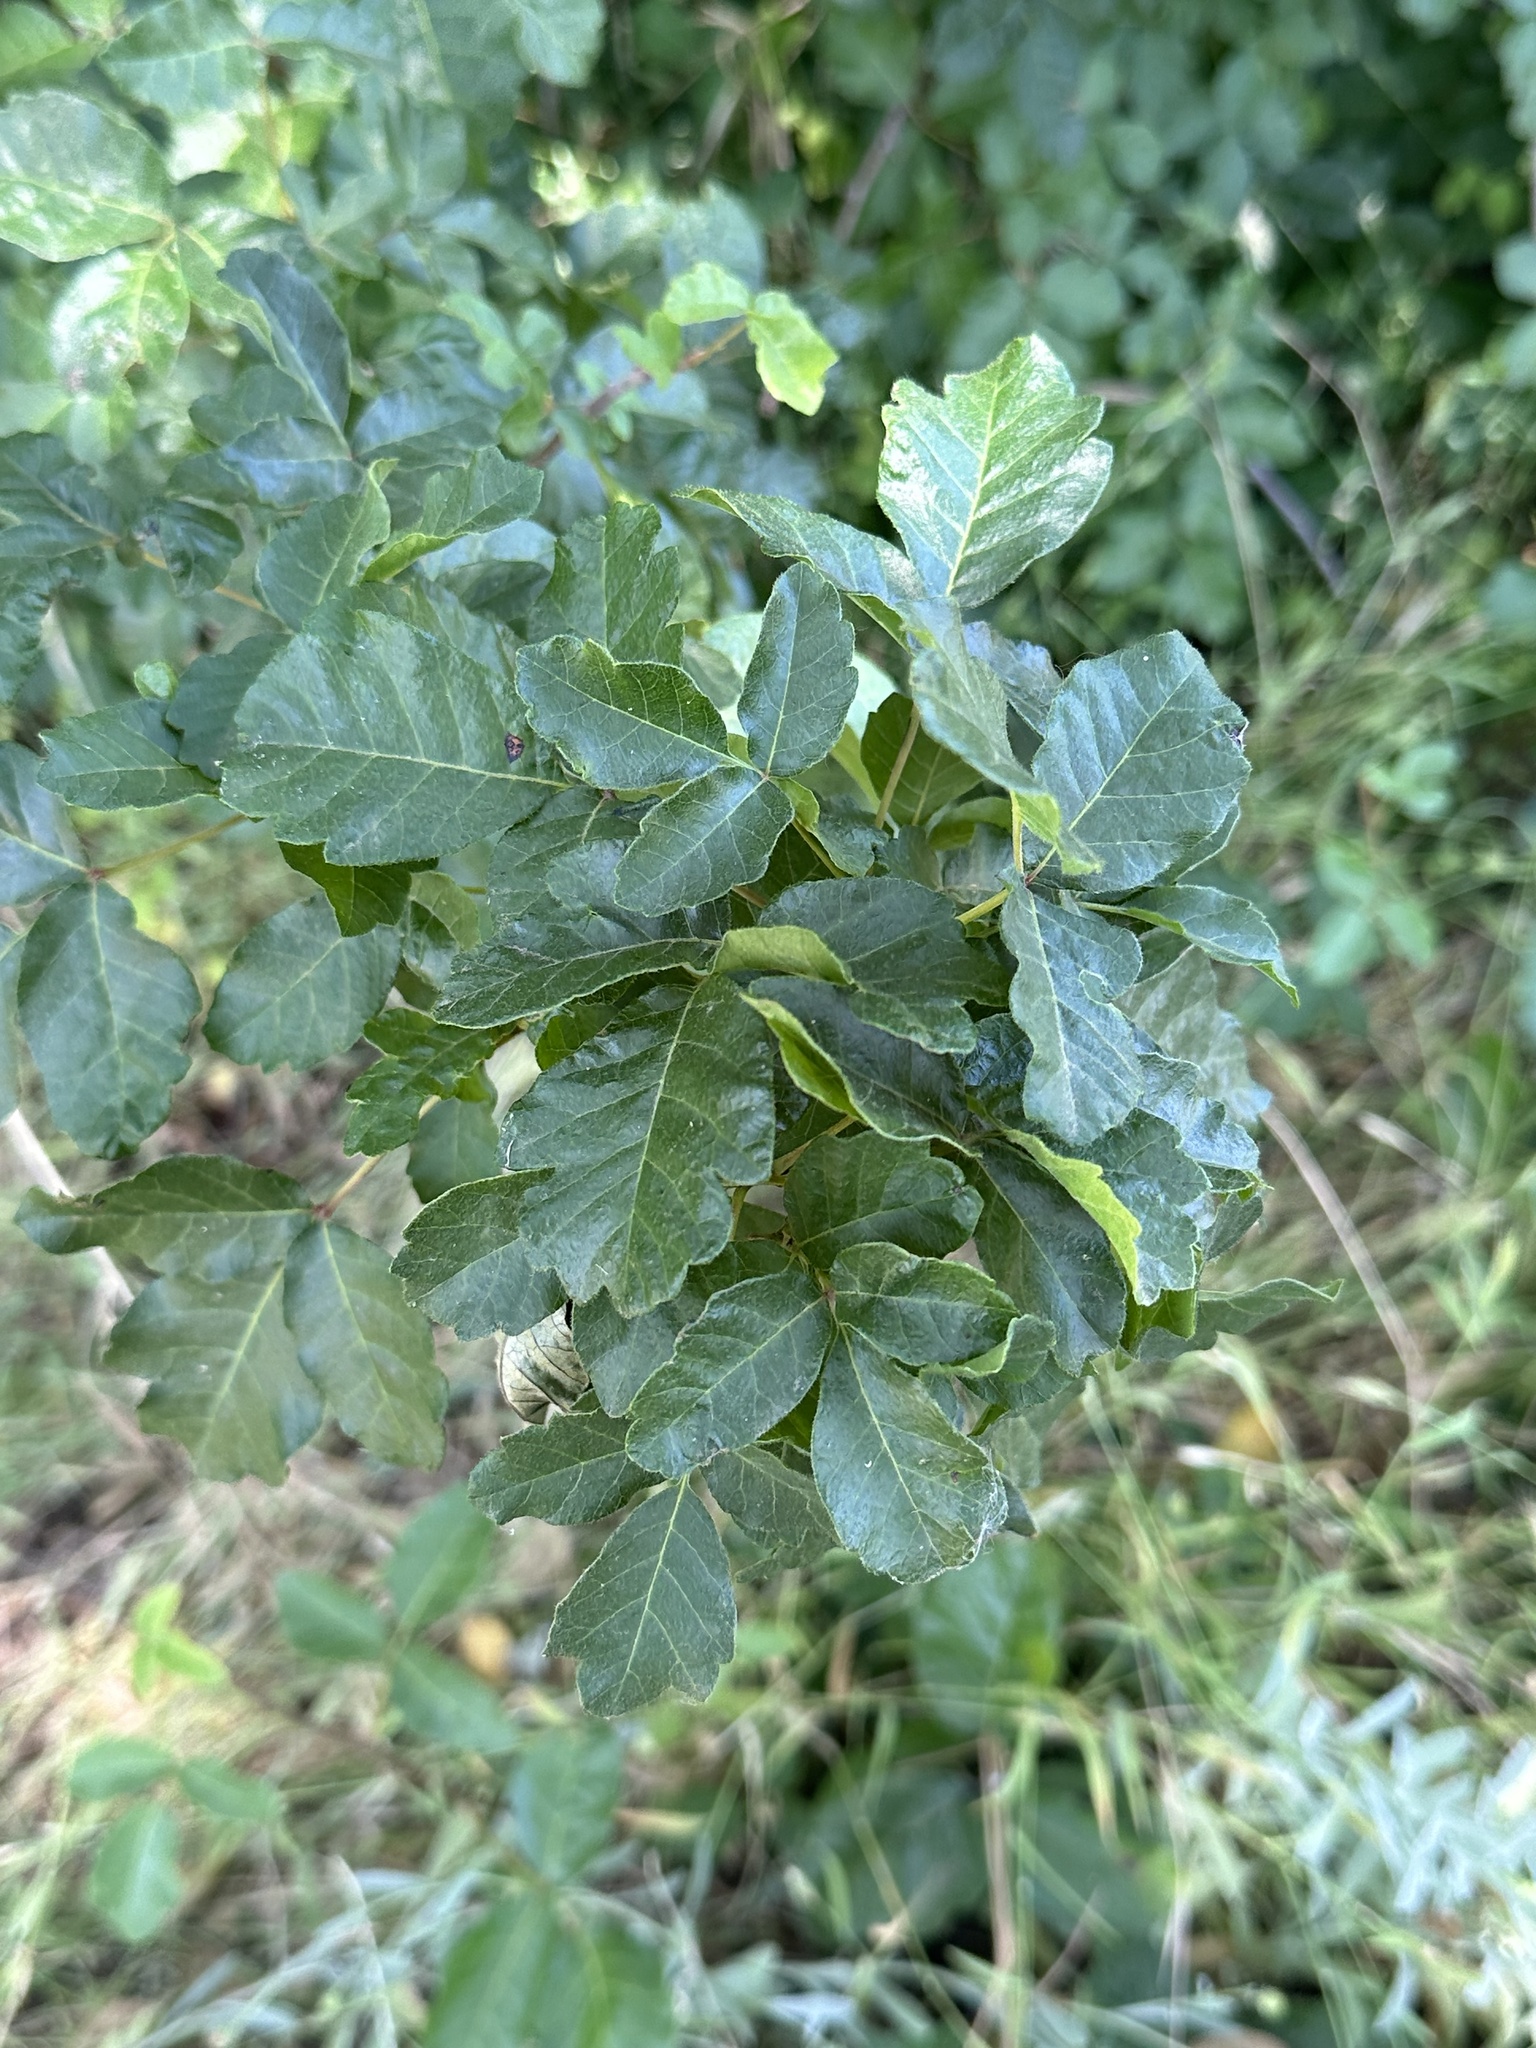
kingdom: Plantae
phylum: Tracheophyta
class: Magnoliopsida
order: Sapindales
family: Anacardiaceae
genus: Toxicodendron
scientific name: Toxicodendron diversilobum
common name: Pacific poison-oak
